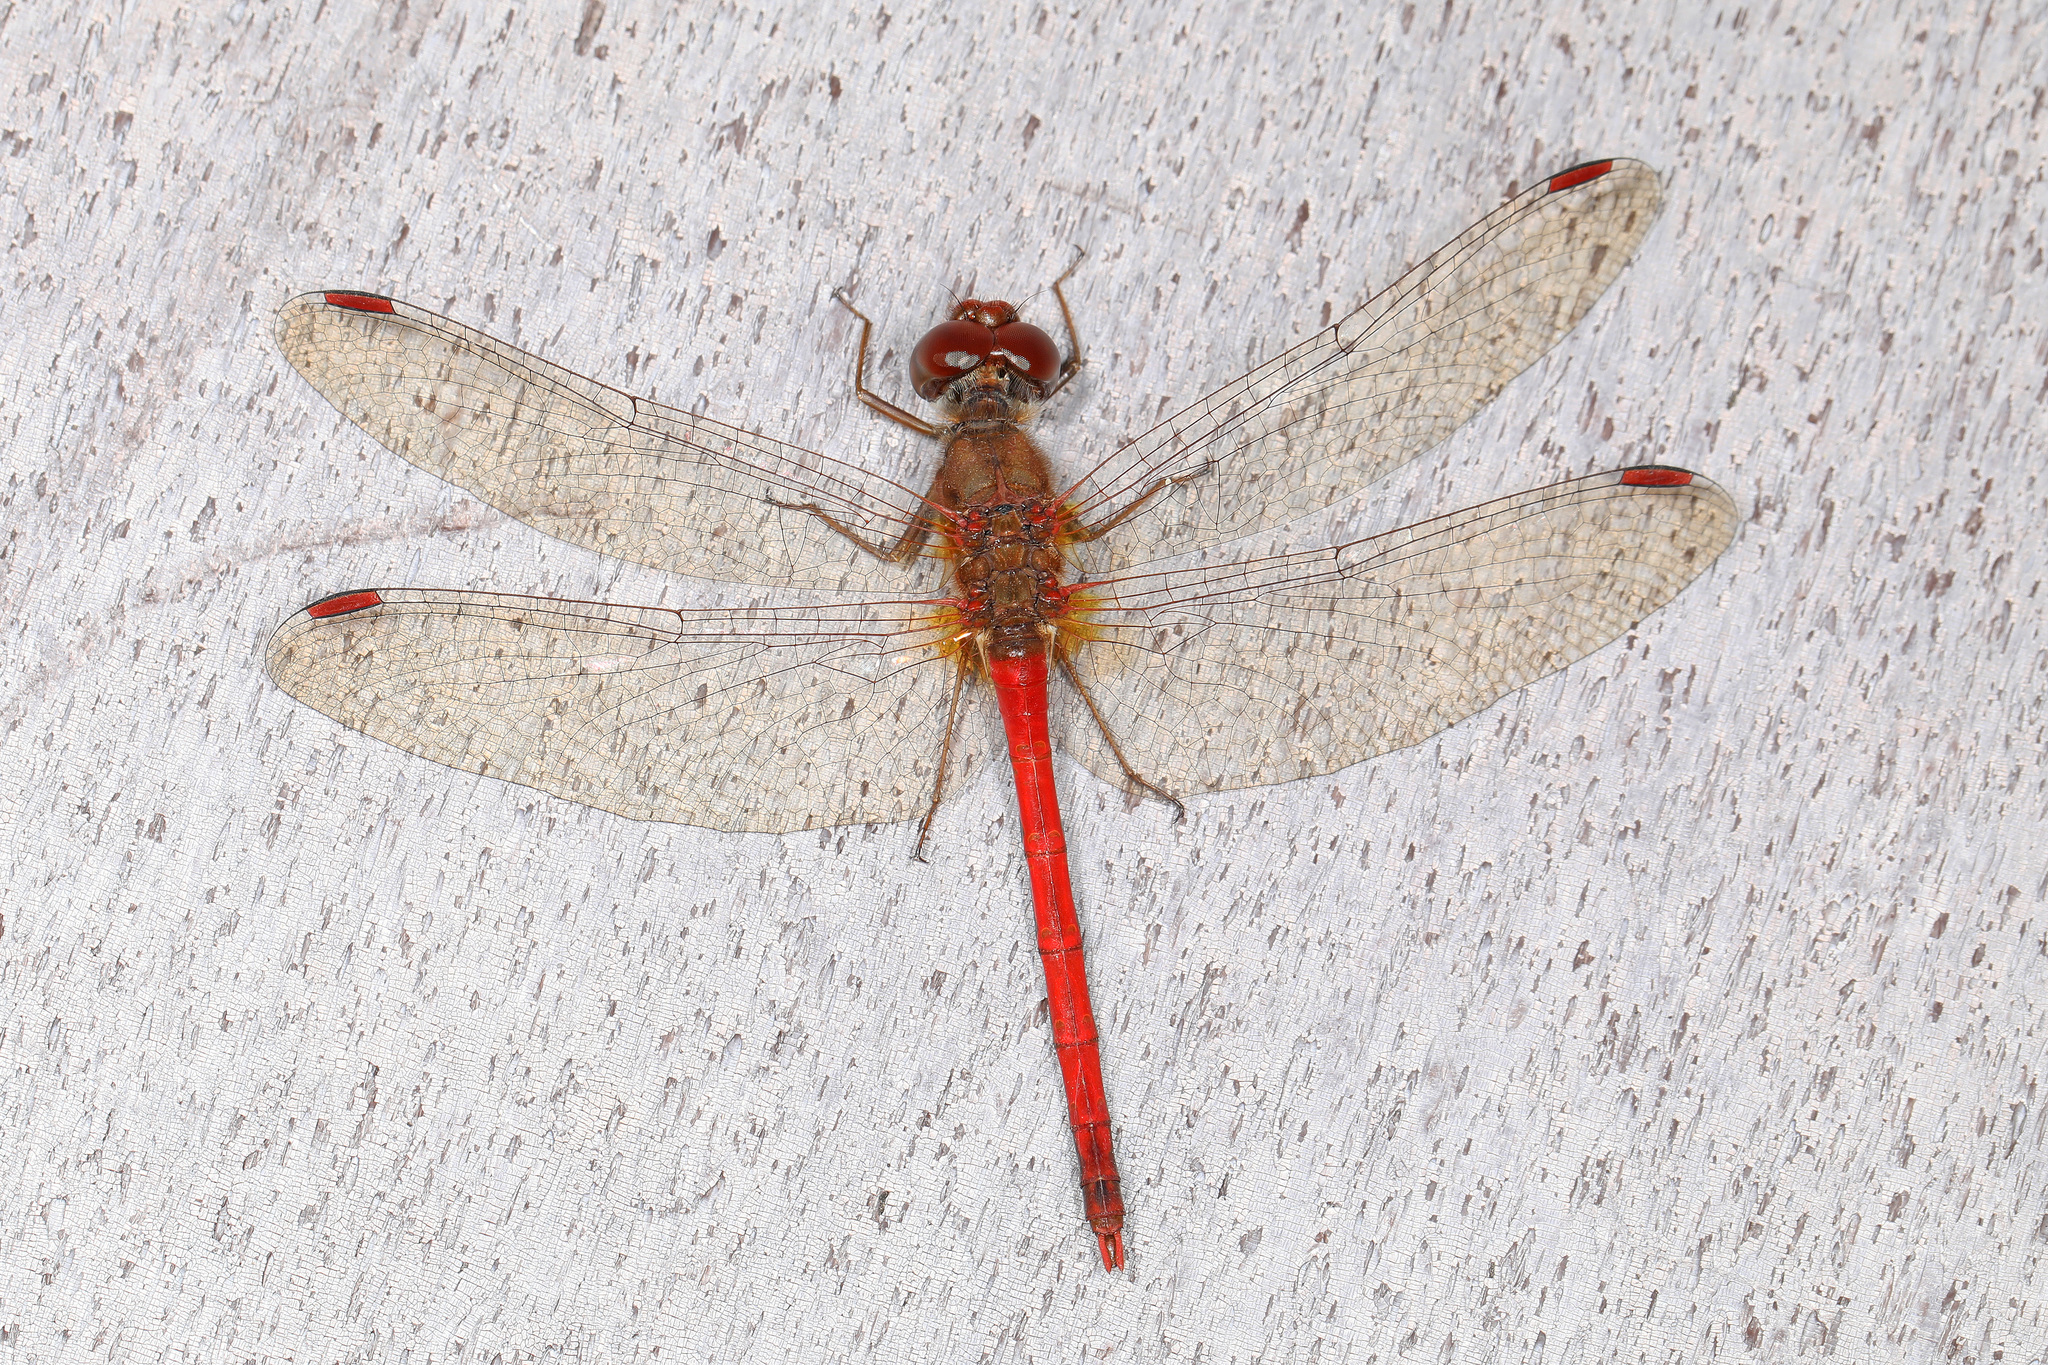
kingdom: Animalia
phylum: Arthropoda
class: Insecta
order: Odonata
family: Libellulidae
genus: Sympetrum
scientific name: Sympetrum vicinum
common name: Autumn meadowhawk
